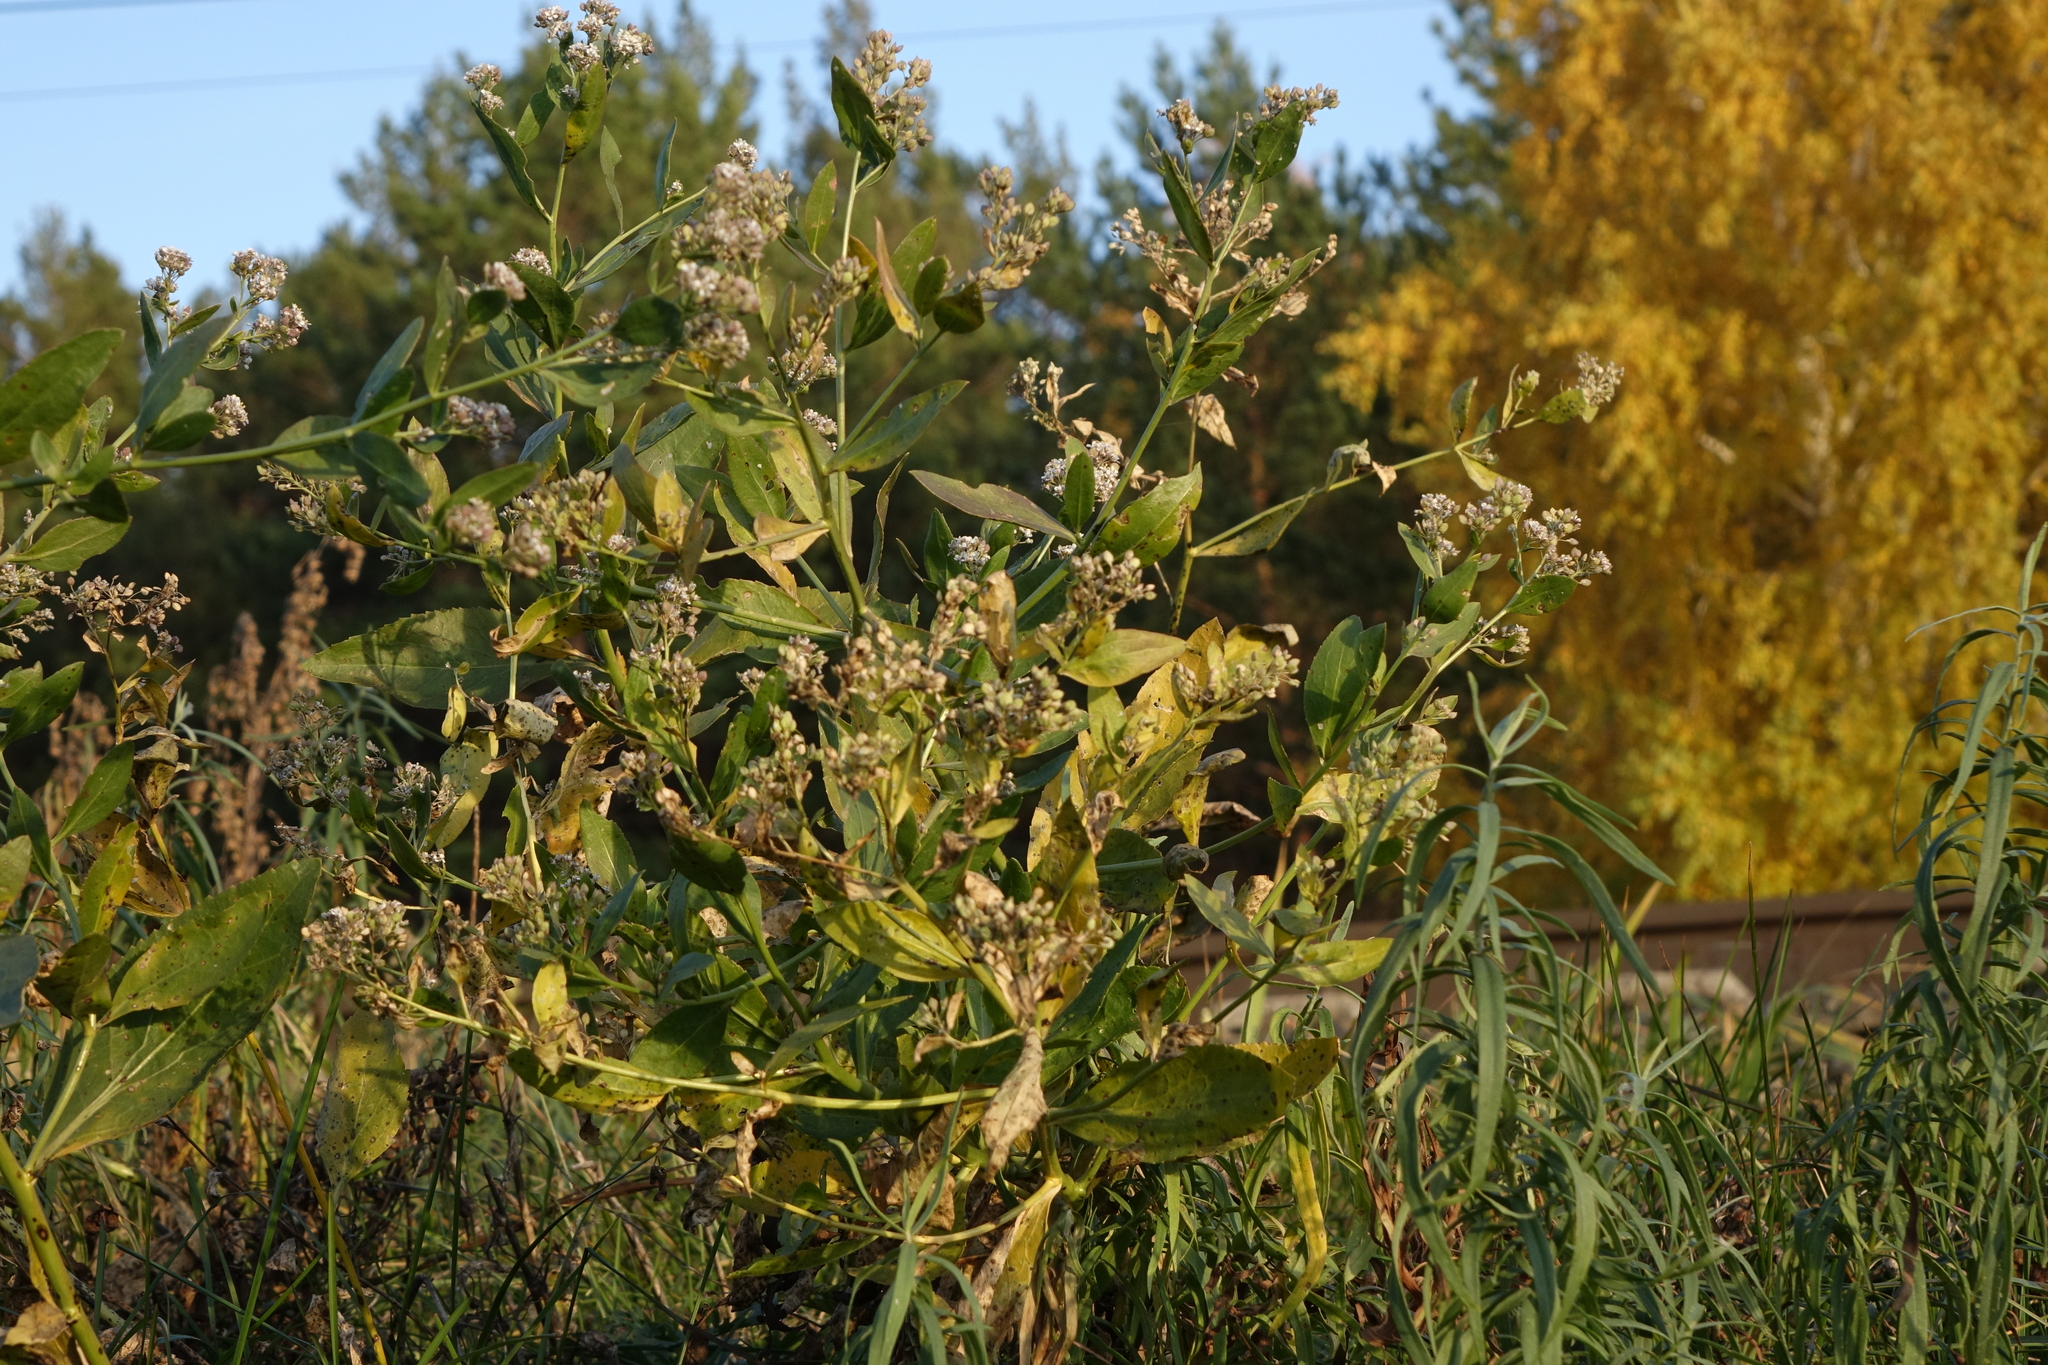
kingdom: Plantae
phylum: Tracheophyta
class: Magnoliopsida
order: Brassicales
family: Brassicaceae
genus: Lepidium
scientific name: Lepidium latifolium
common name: Dittander
